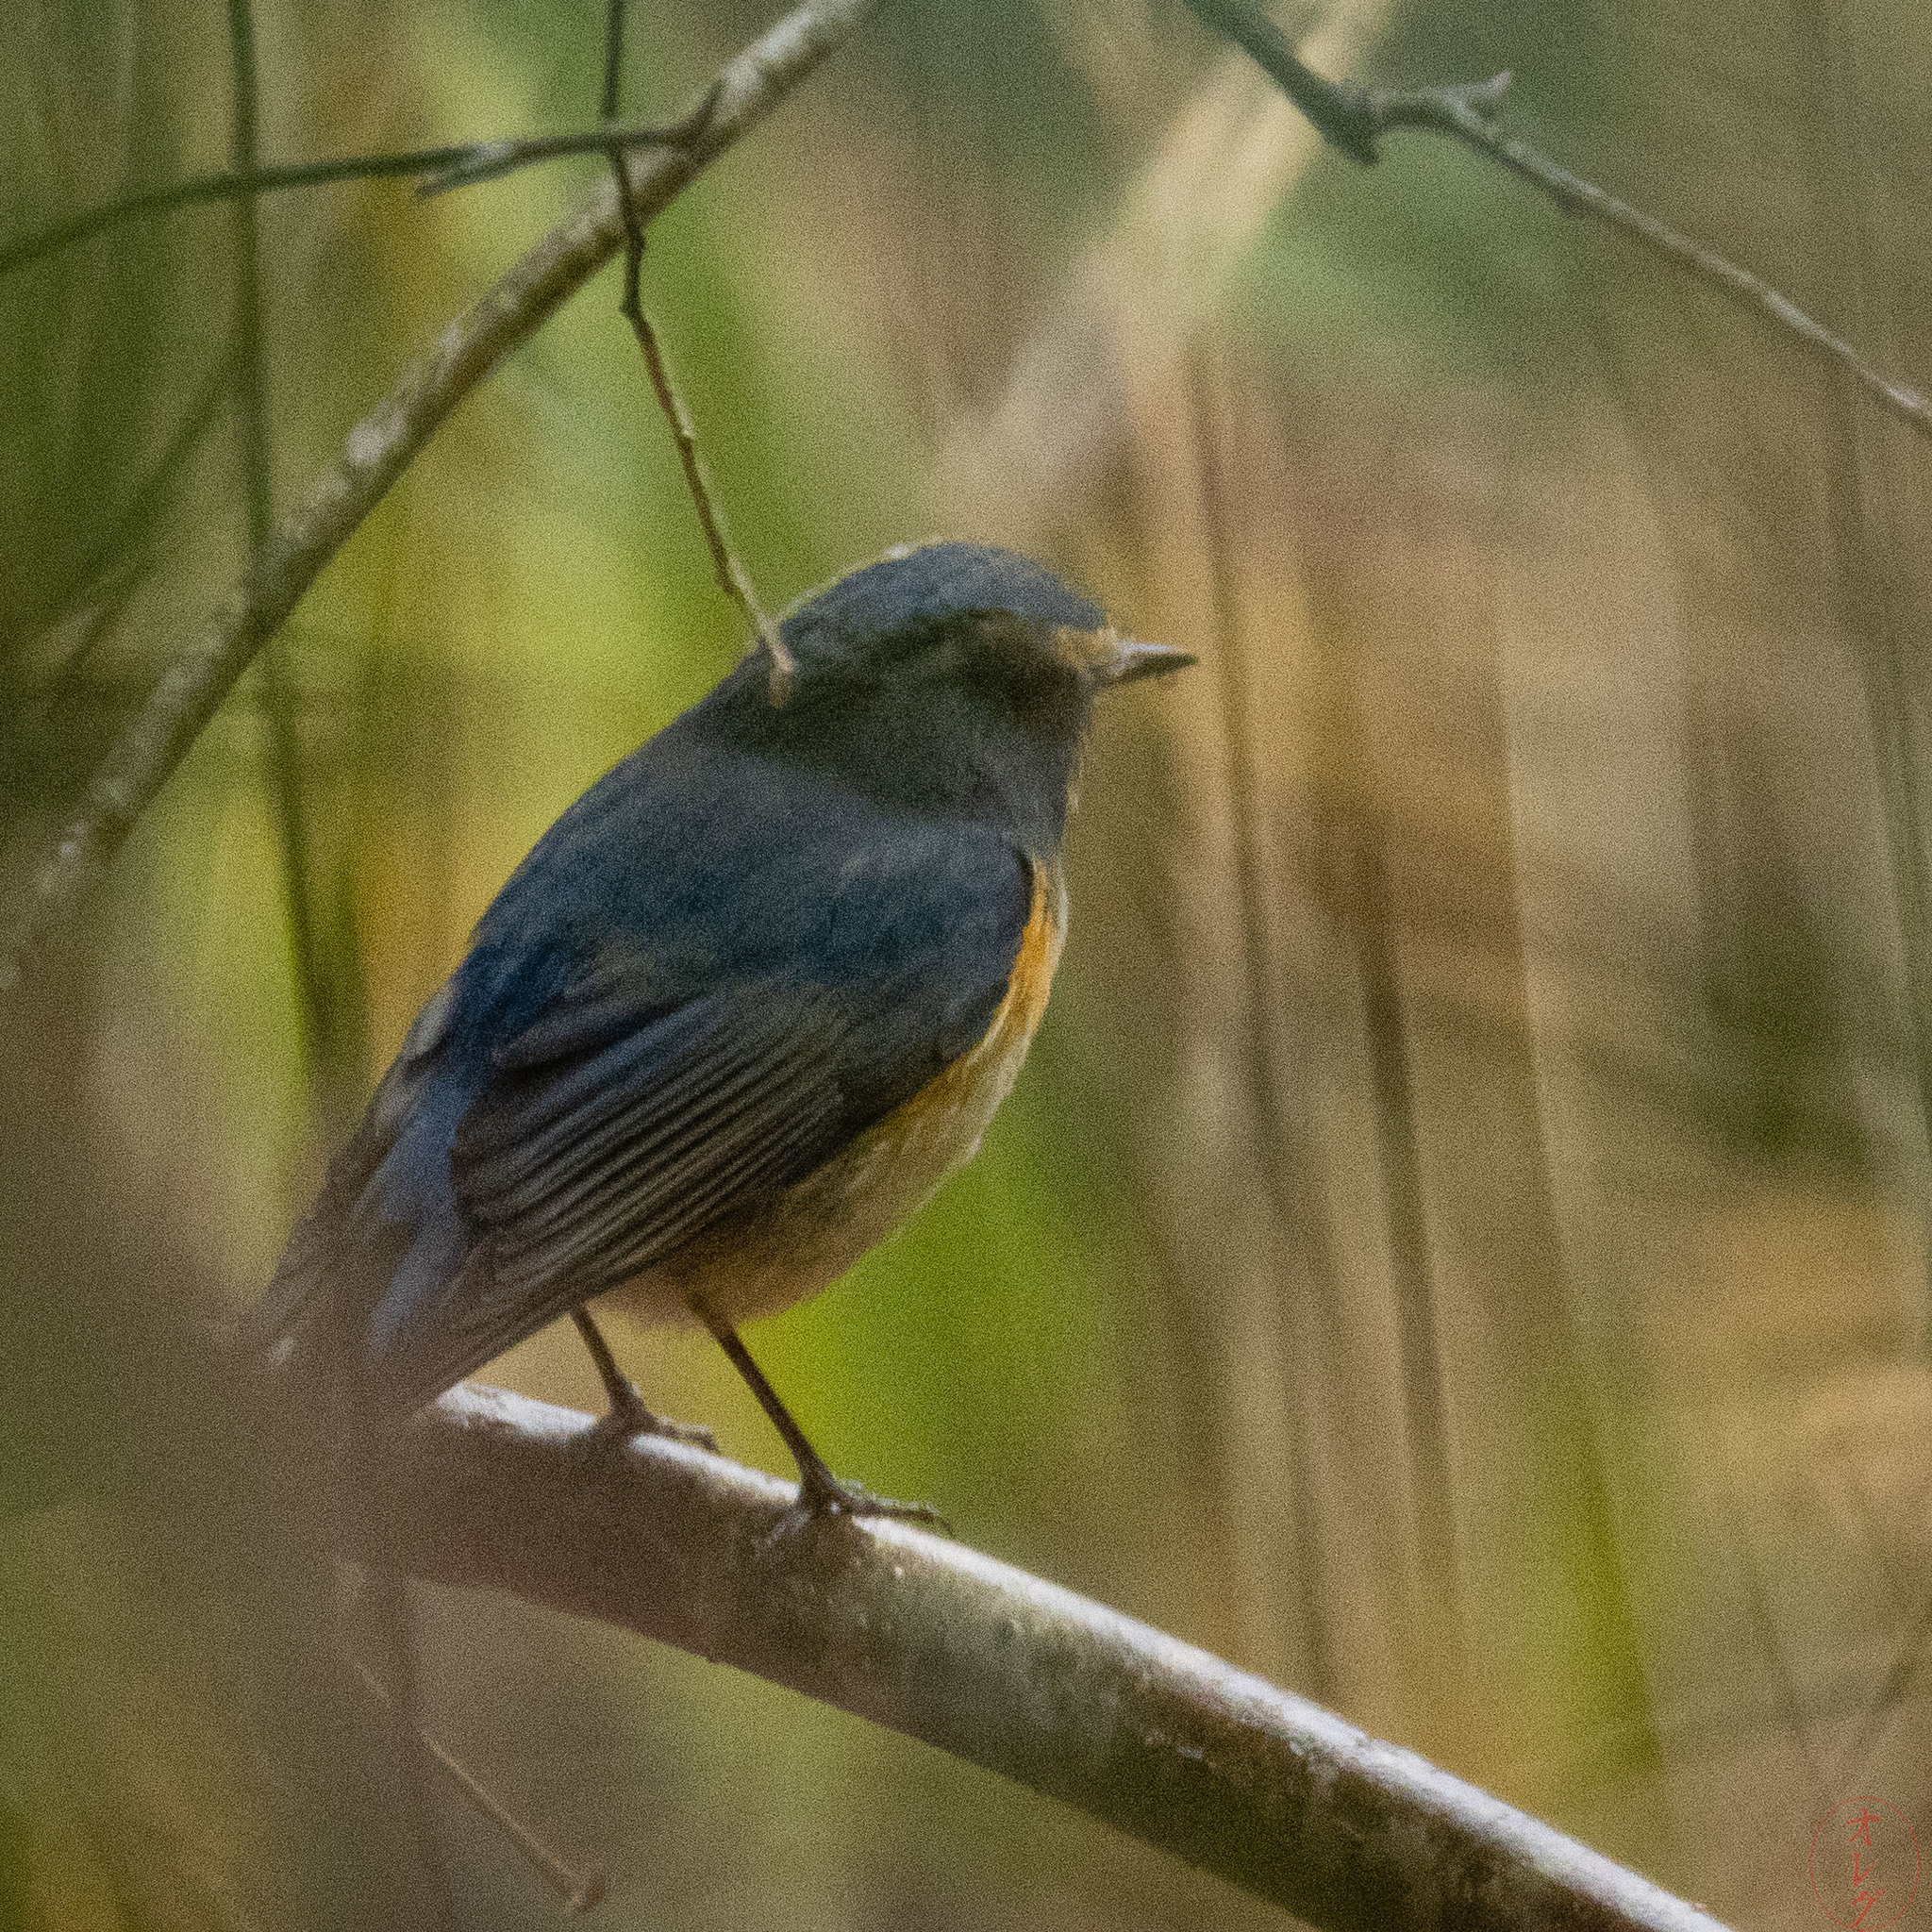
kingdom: Animalia
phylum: Chordata
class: Aves
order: Passeriformes
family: Muscicapidae
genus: Tarsiger
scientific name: Tarsiger cyanurus
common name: Red-flanked bluetail
